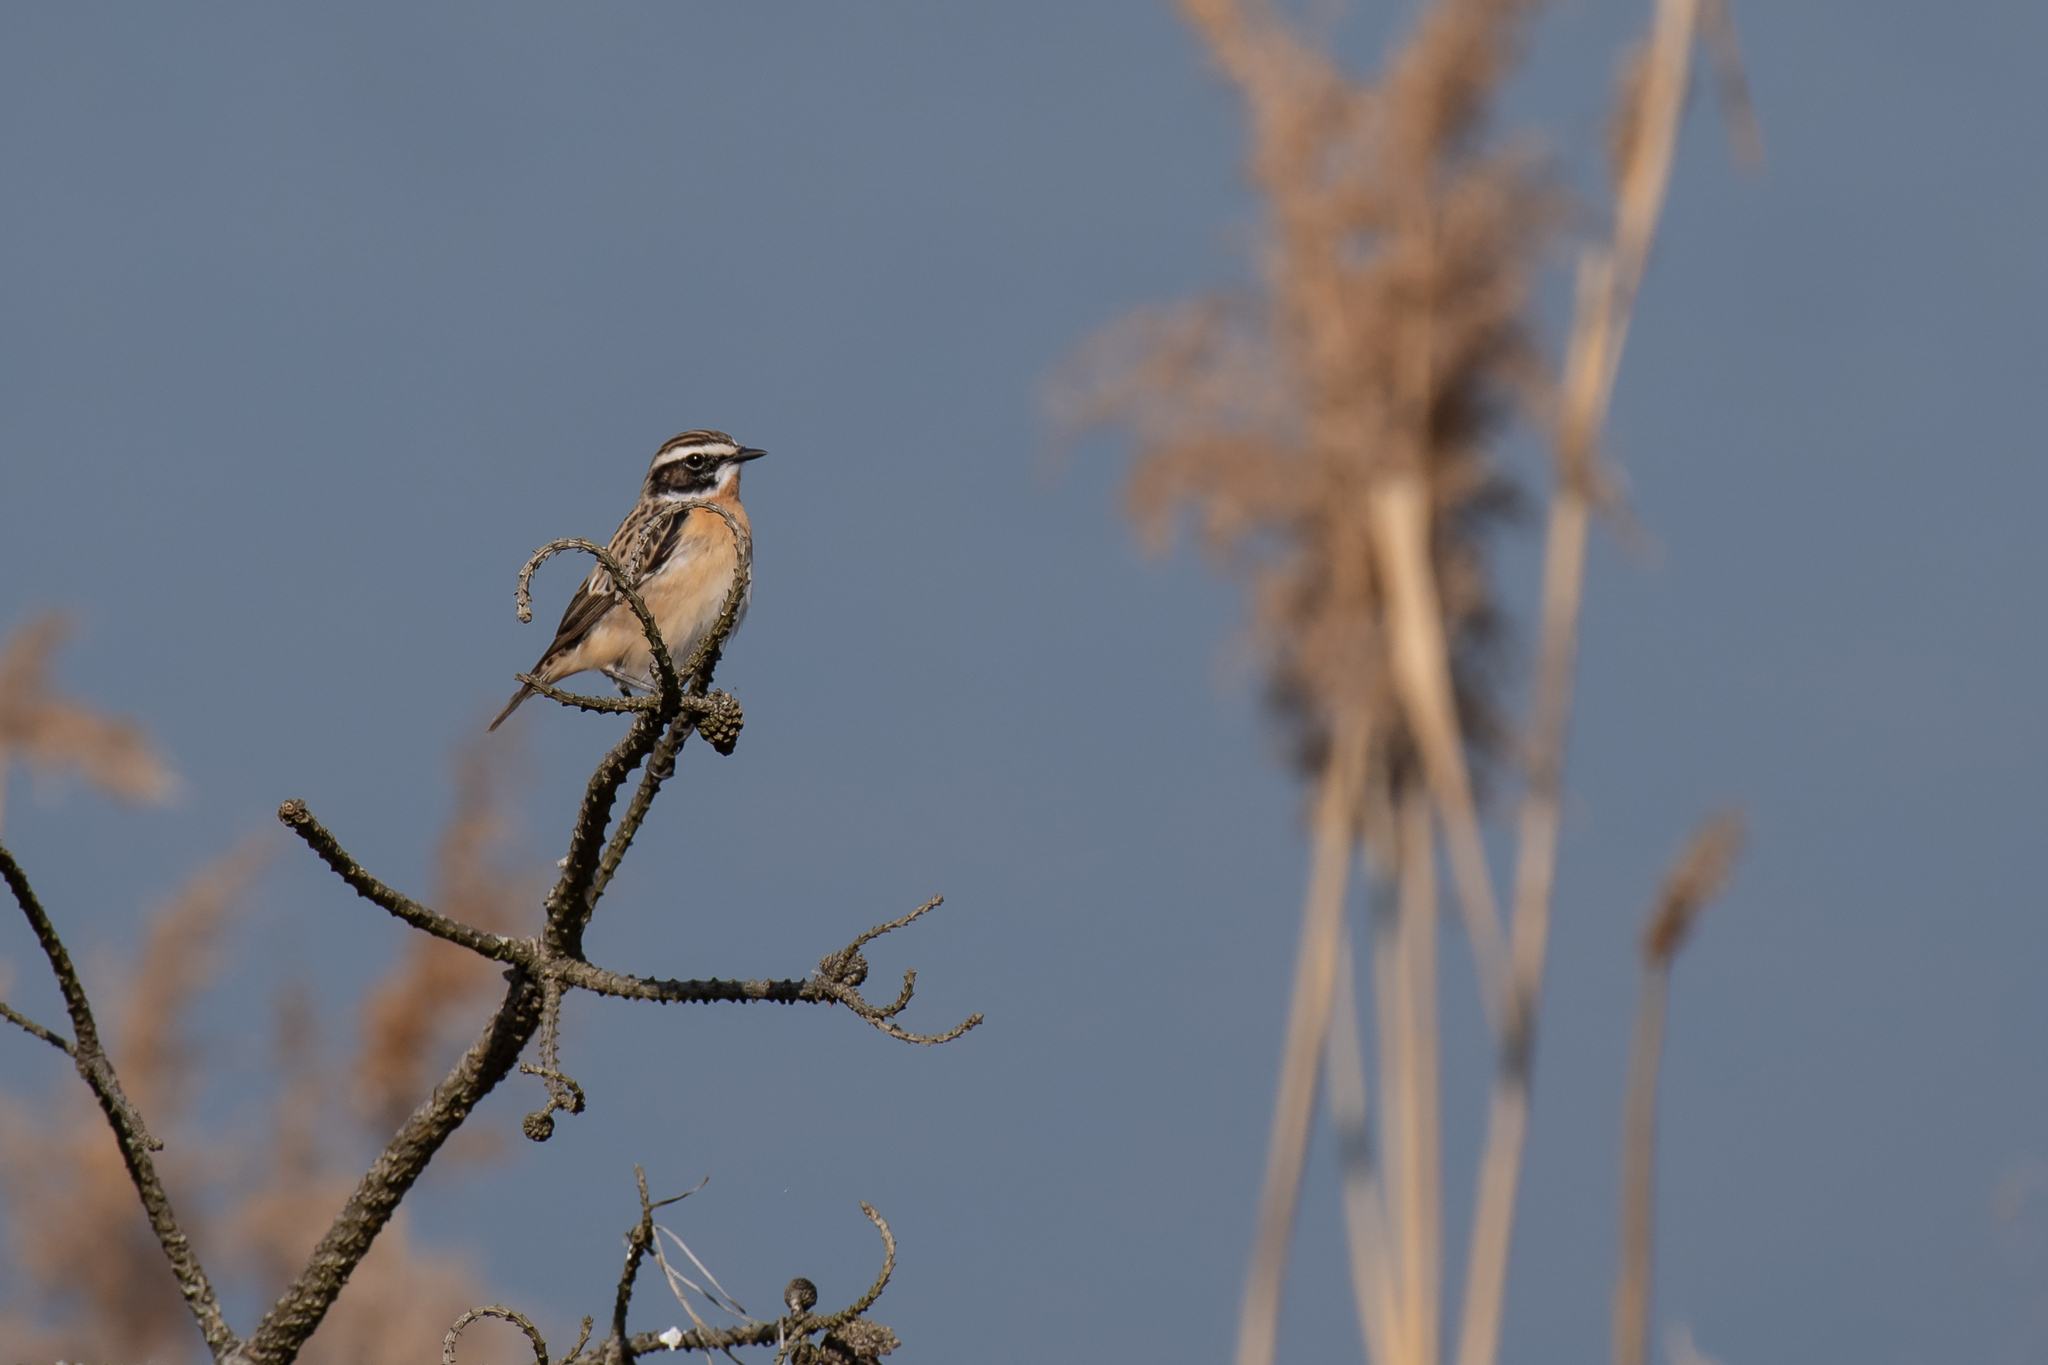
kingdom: Animalia
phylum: Chordata
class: Aves
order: Passeriformes
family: Muscicapidae
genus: Saxicola
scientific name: Saxicola rubetra
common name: Whinchat
